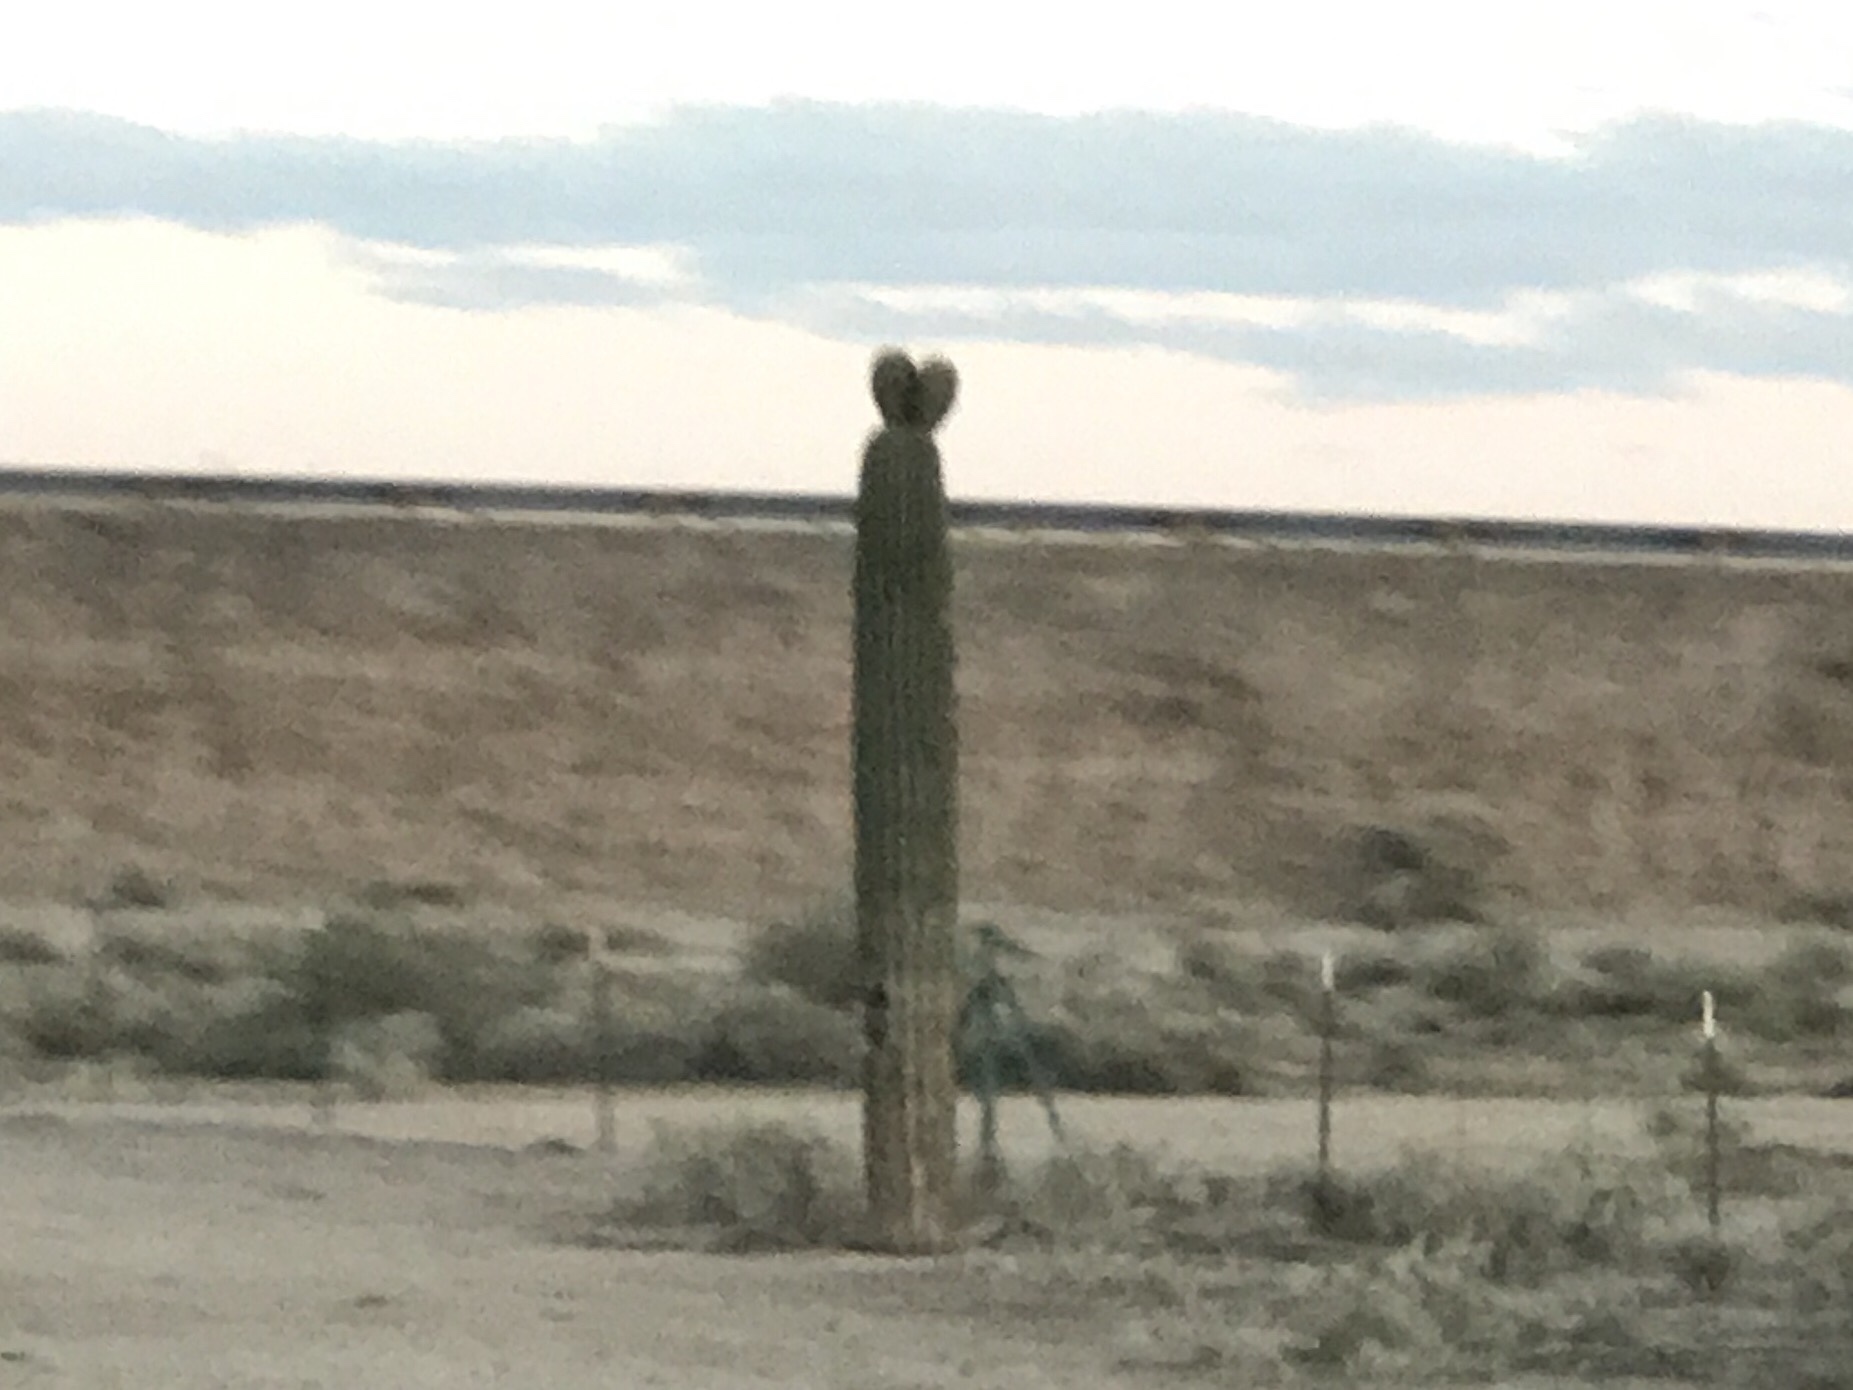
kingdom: Plantae
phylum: Tracheophyta
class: Magnoliopsida
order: Caryophyllales
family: Cactaceae
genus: Carnegiea
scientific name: Carnegiea gigantea
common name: Saguaro
